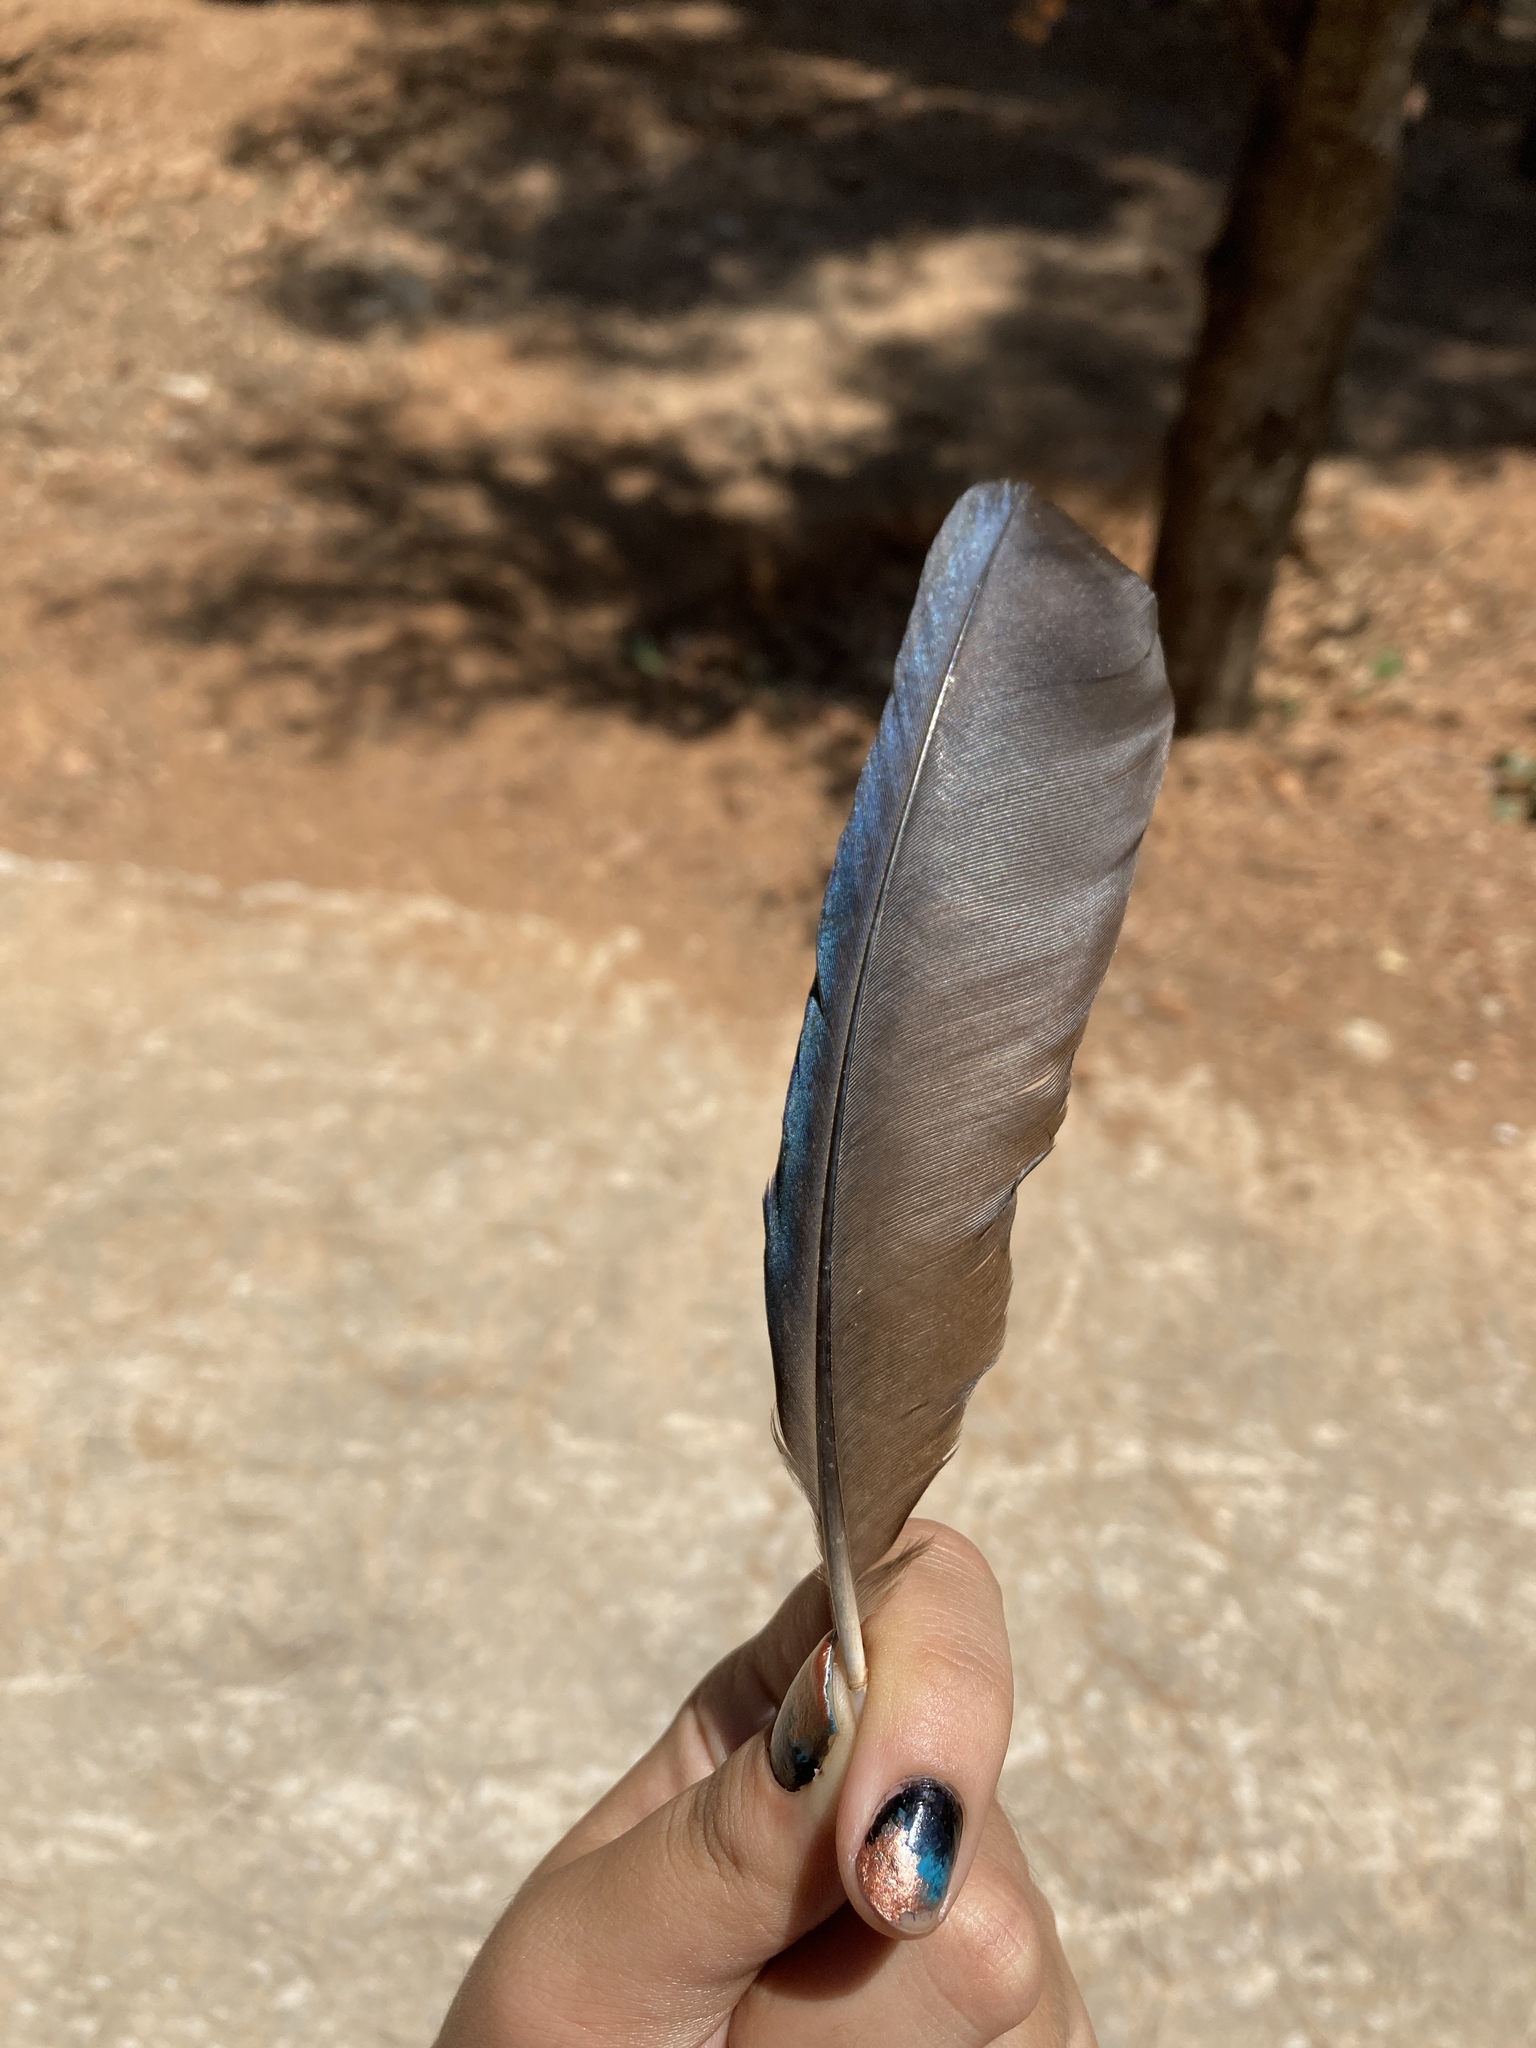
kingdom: Animalia
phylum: Chordata
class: Aves
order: Passeriformes
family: Corvidae
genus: Pica
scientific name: Pica pica
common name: Eurasian magpie
